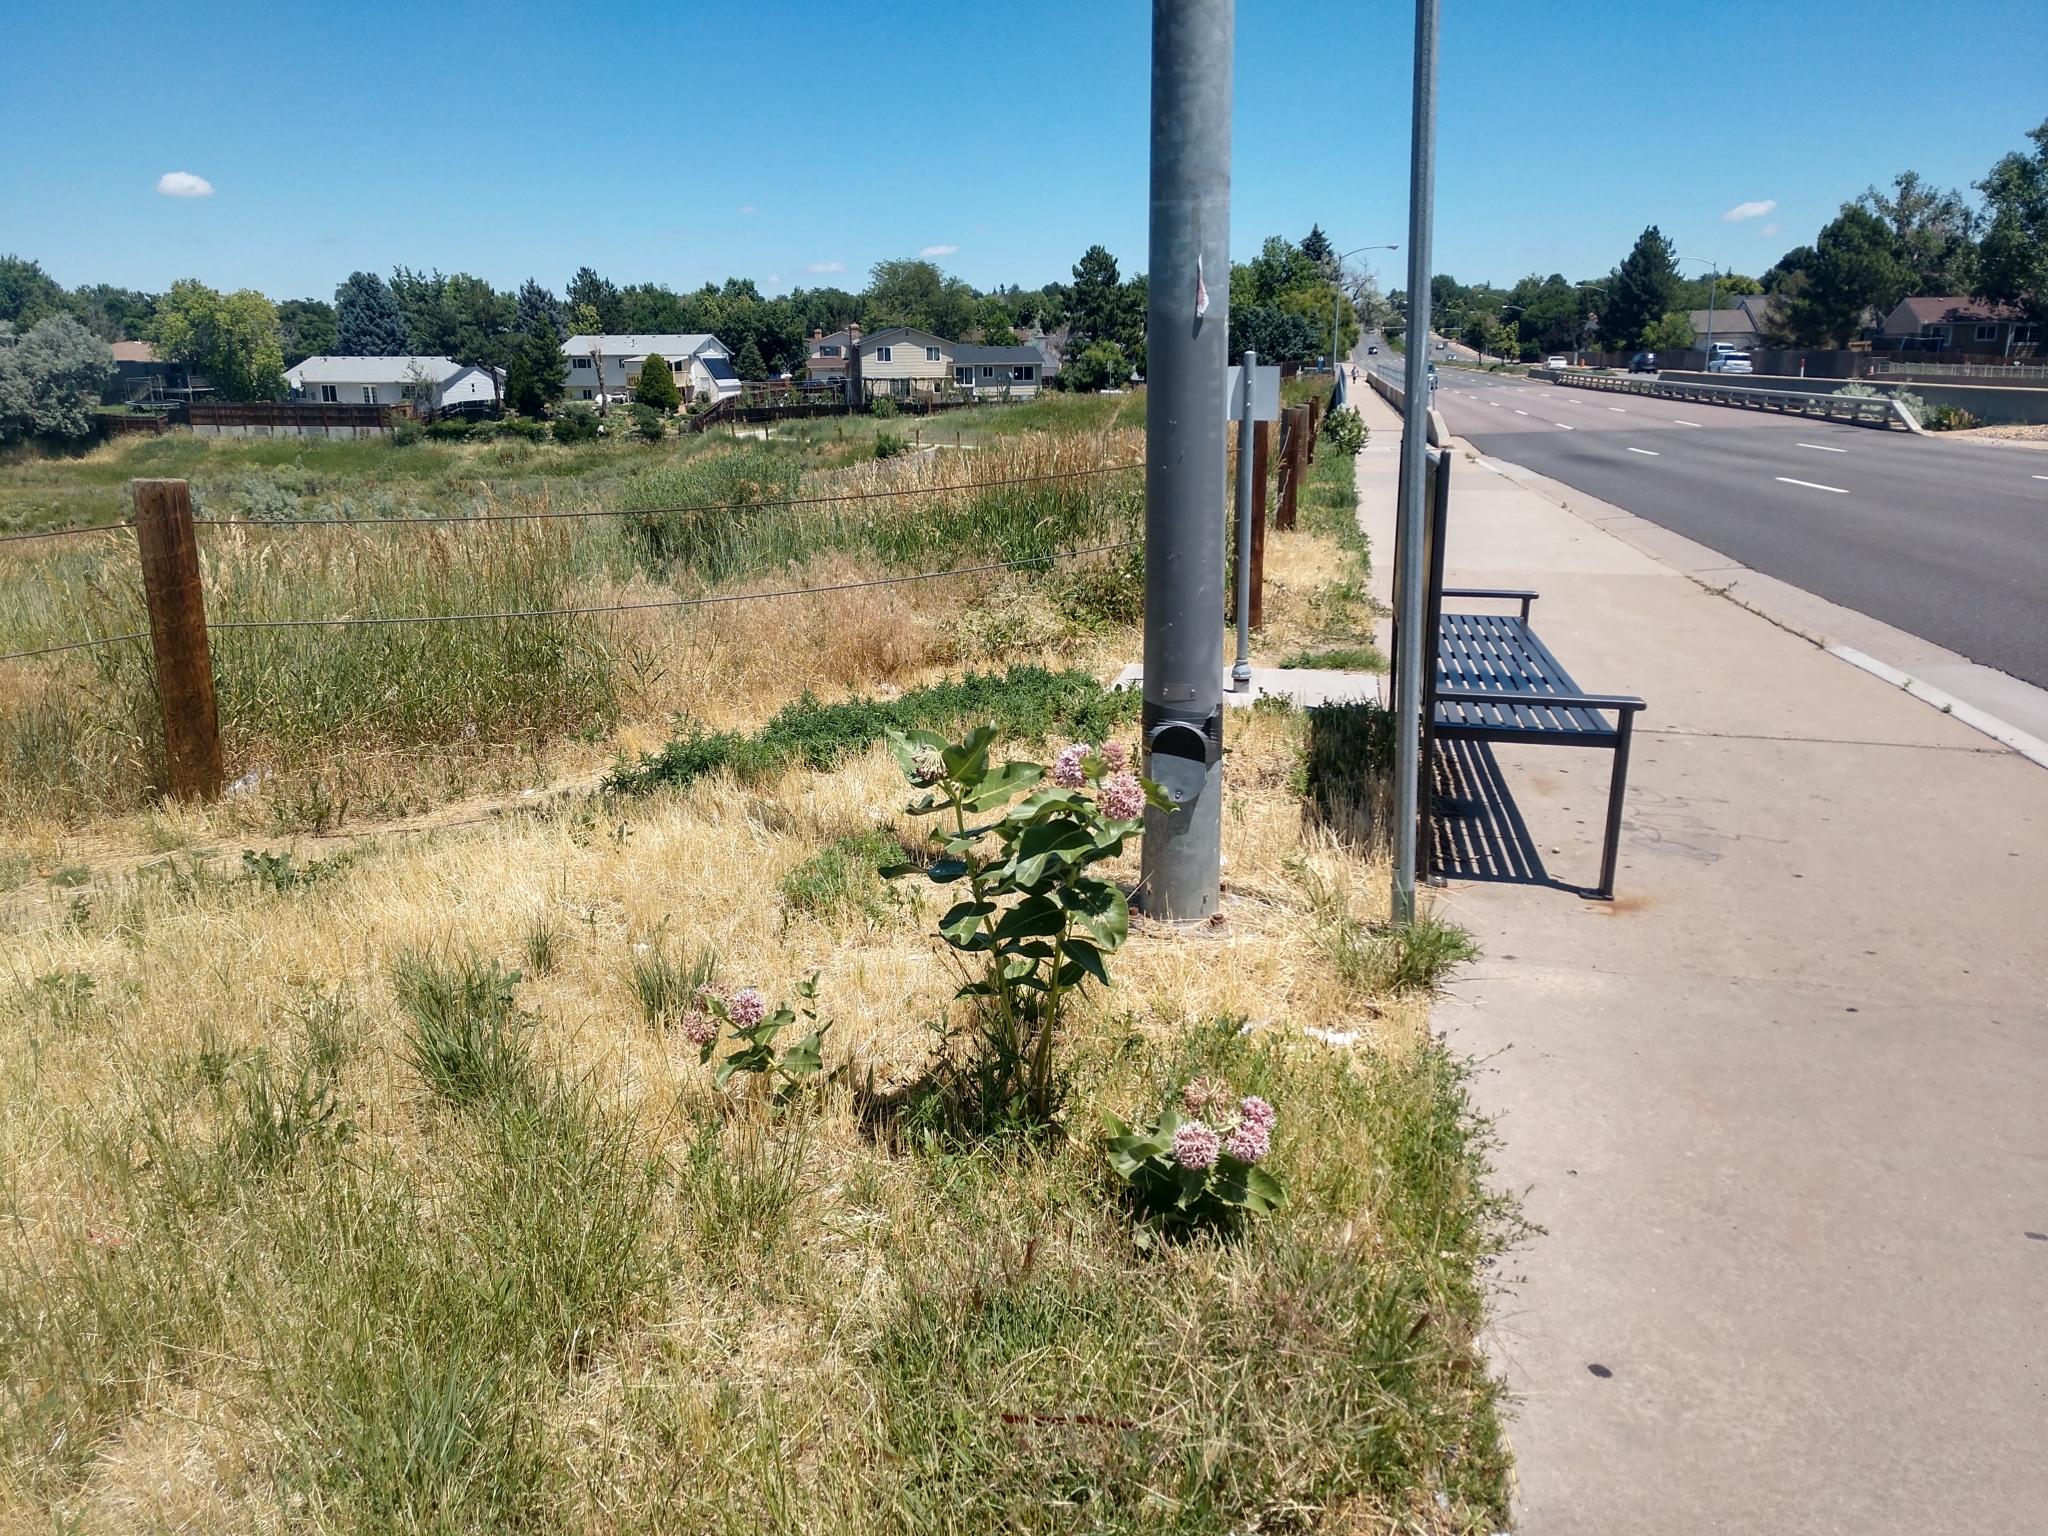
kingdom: Plantae
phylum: Tracheophyta
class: Magnoliopsida
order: Gentianales
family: Apocynaceae
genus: Asclepias
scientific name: Asclepias speciosa
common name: Showy milkweed
